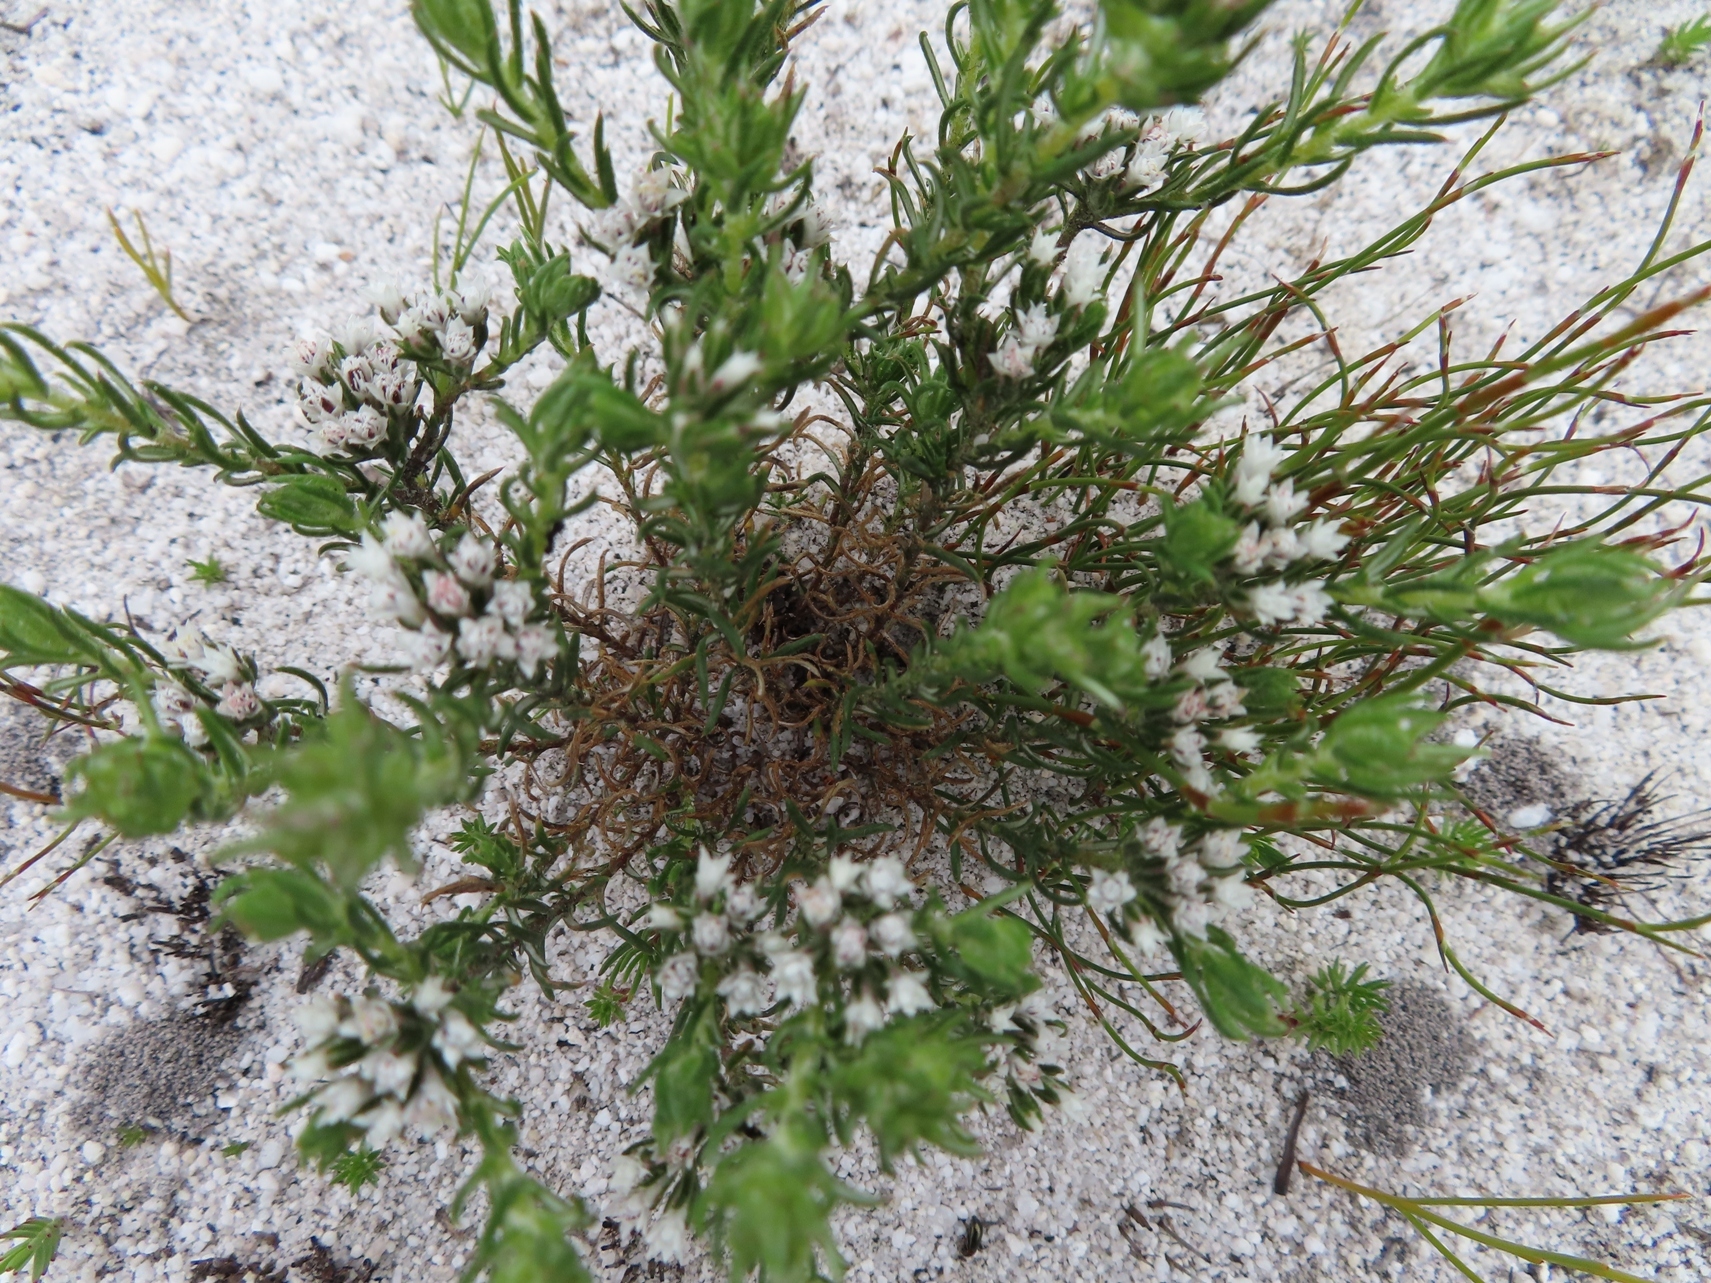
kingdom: Plantae
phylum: Tracheophyta
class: Magnoliopsida
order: Asterales
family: Asteraceae
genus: Metalasia
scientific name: Metalasia lichtensteinii
